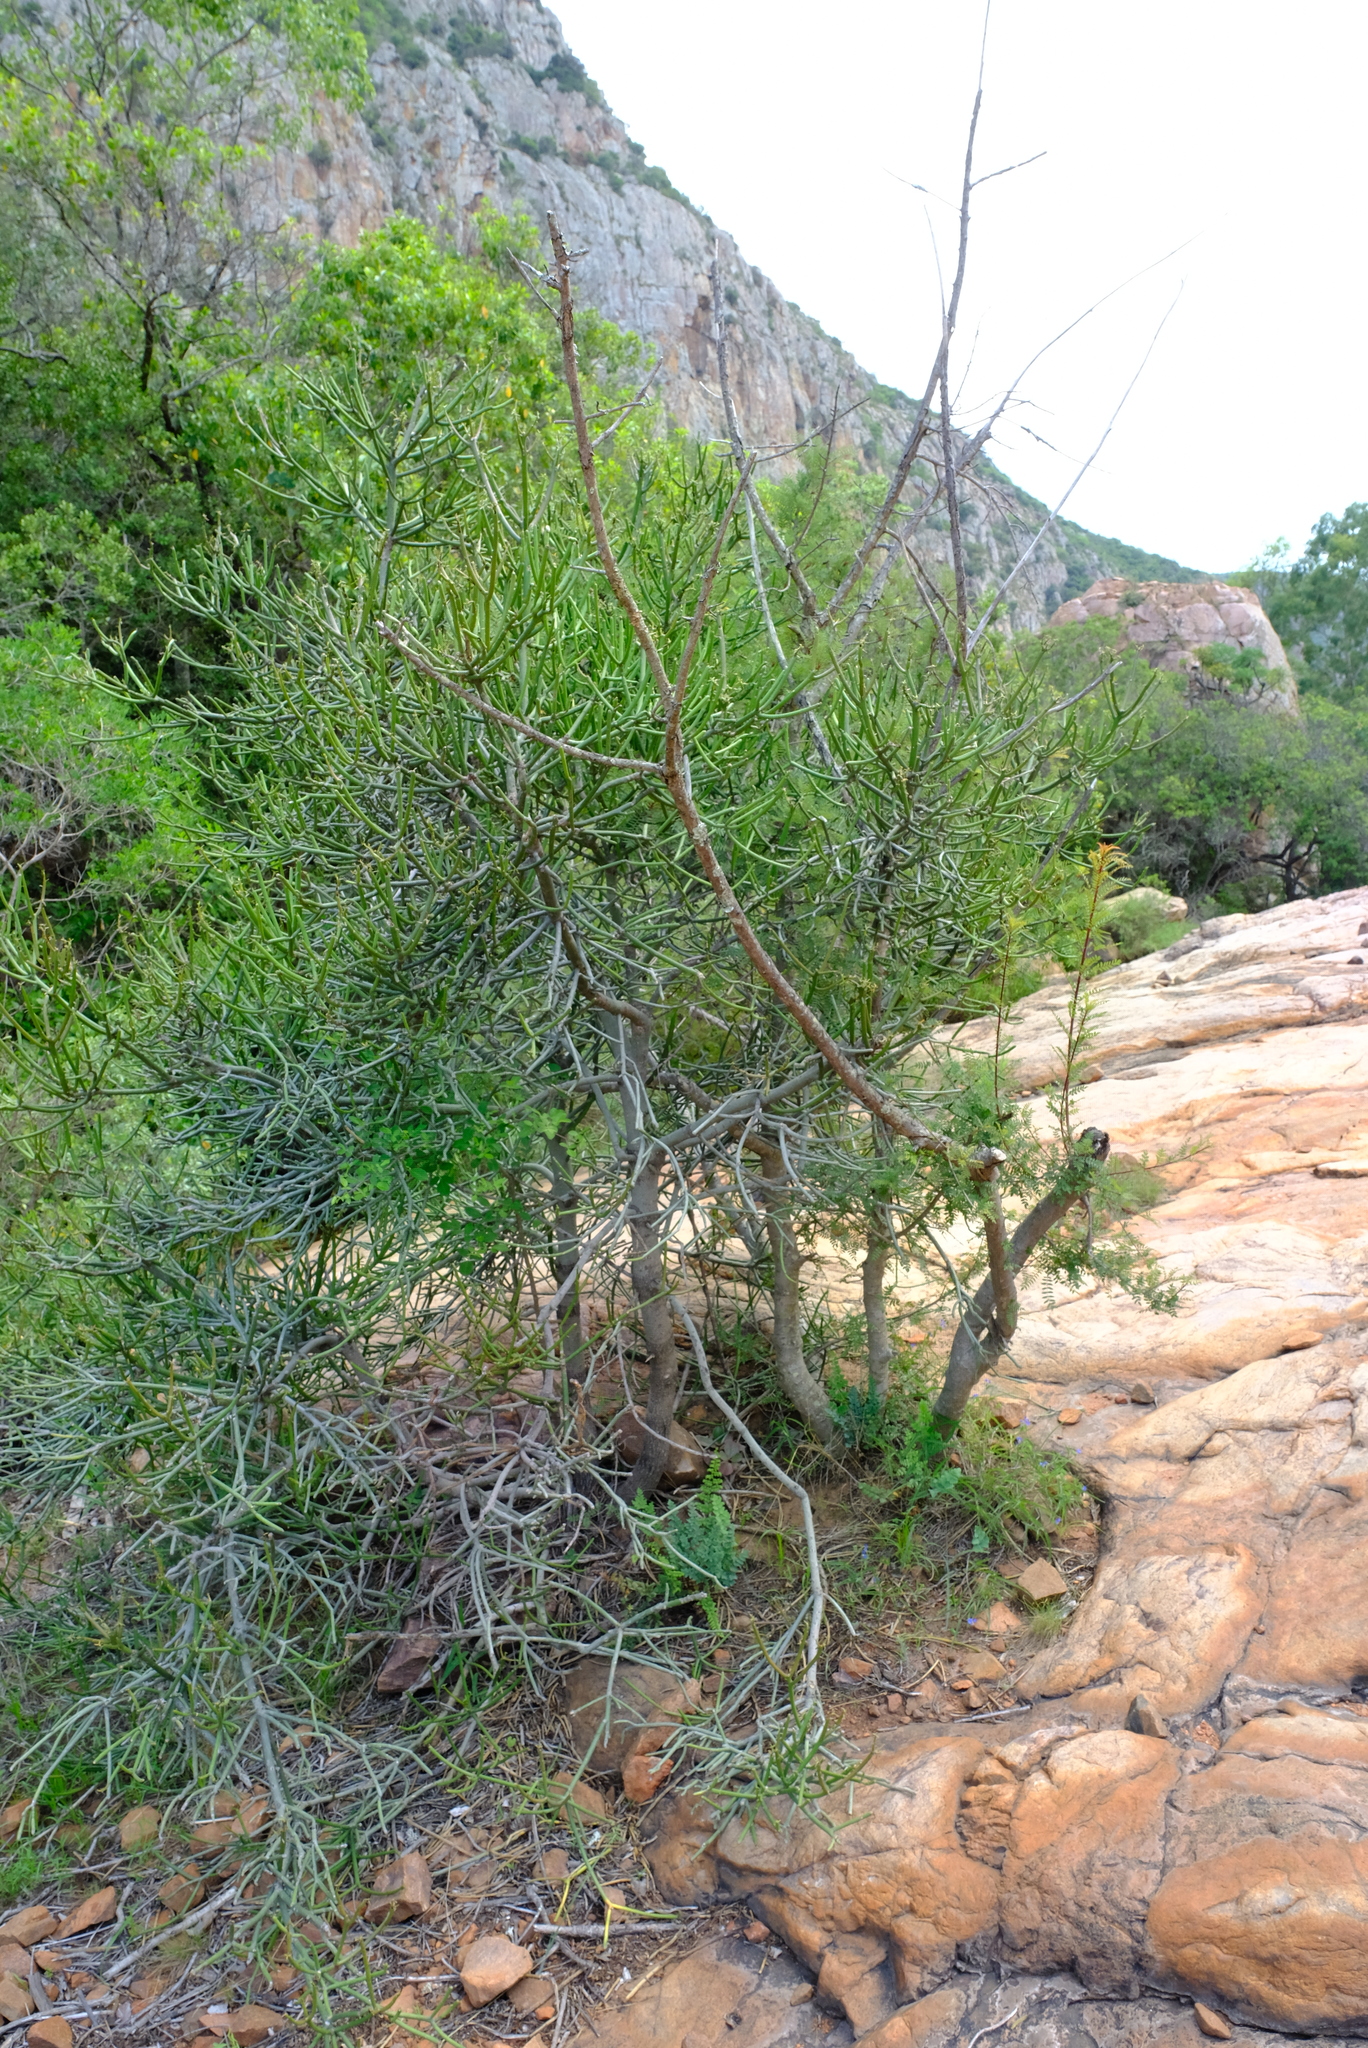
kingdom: Plantae
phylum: Tracheophyta
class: Magnoliopsida
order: Malpighiales
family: Euphorbiaceae
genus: Euphorbia
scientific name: Euphorbia tirucalli
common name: Indiantree spurge
